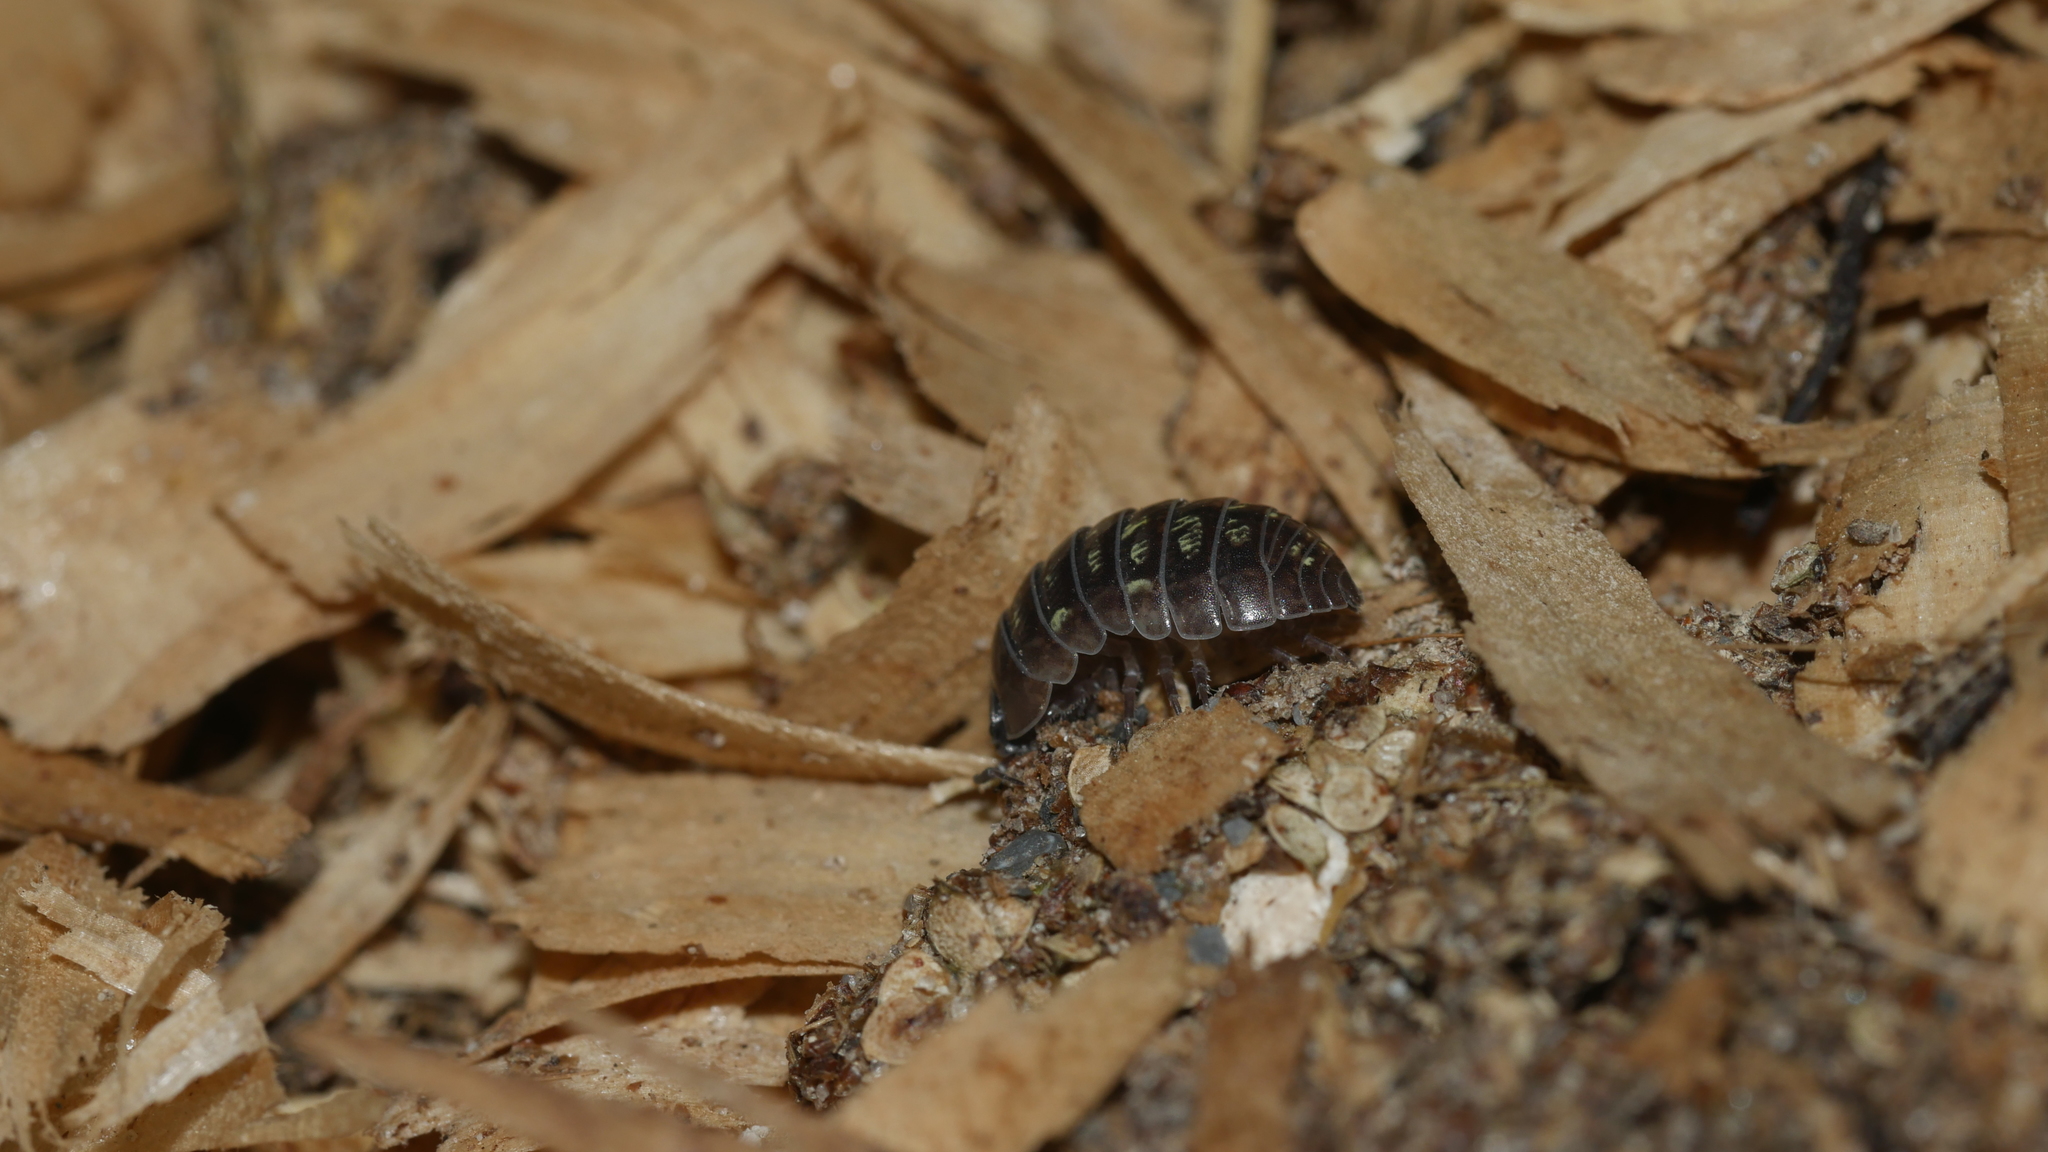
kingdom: Animalia
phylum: Arthropoda
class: Malacostraca
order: Isopoda
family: Armadillidiidae
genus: Armadillidium
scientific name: Armadillidium vulgare
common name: Common pill woodlouse
